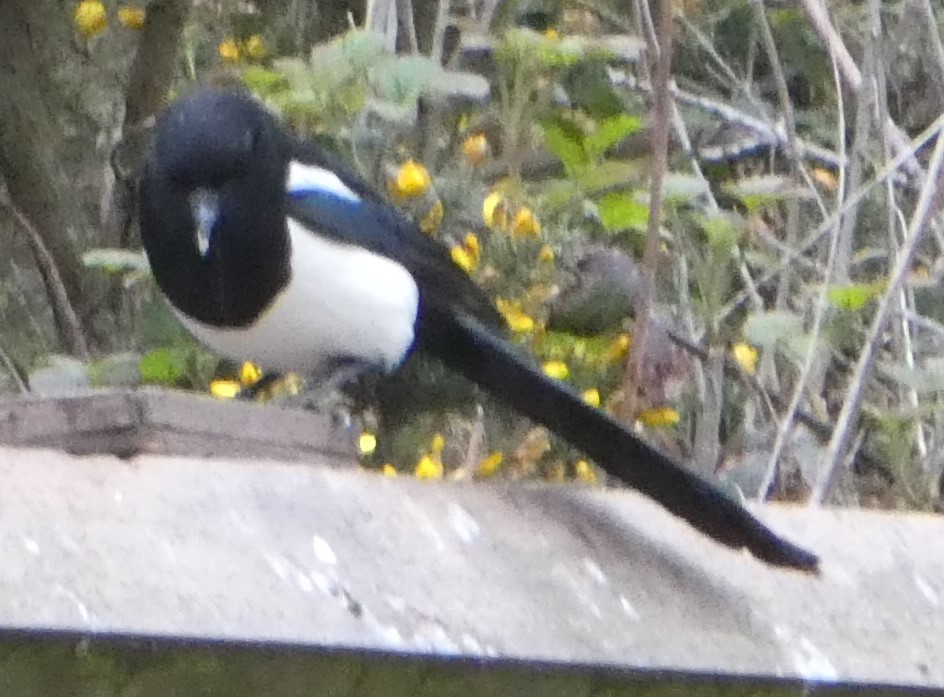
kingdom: Animalia
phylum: Chordata
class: Aves
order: Passeriformes
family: Corvidae
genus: Pica
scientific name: Pica pica
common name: Eurasian magpie
